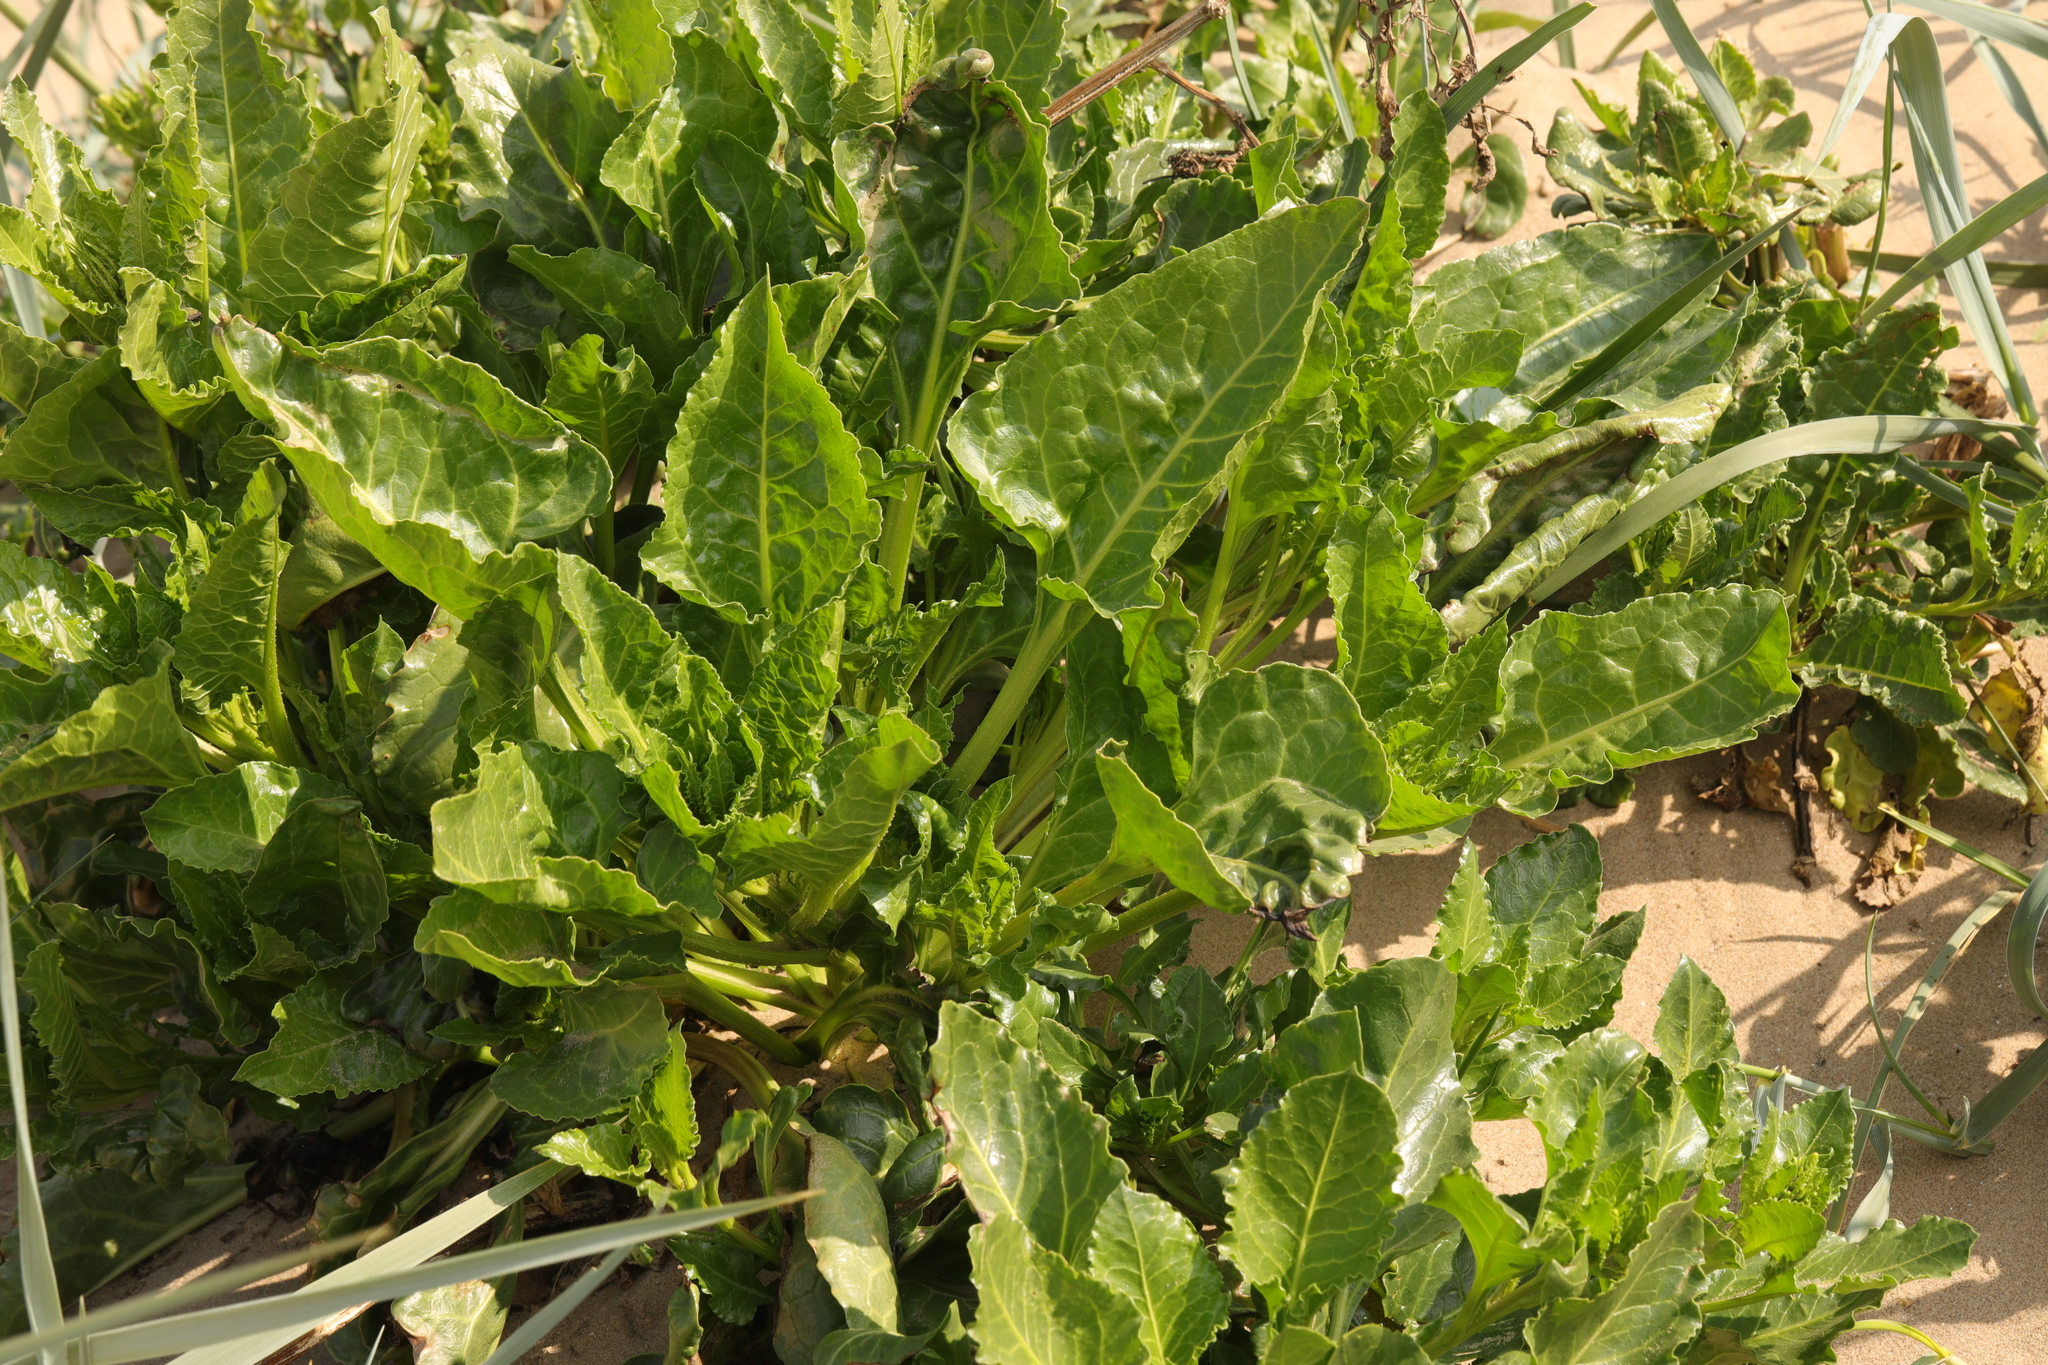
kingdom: Plantae
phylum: Tracheophyta
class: Magnoliopsida
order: Caryophyllales
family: Amaranthaceae
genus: Beta
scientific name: Beta vulgaris
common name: Beet
